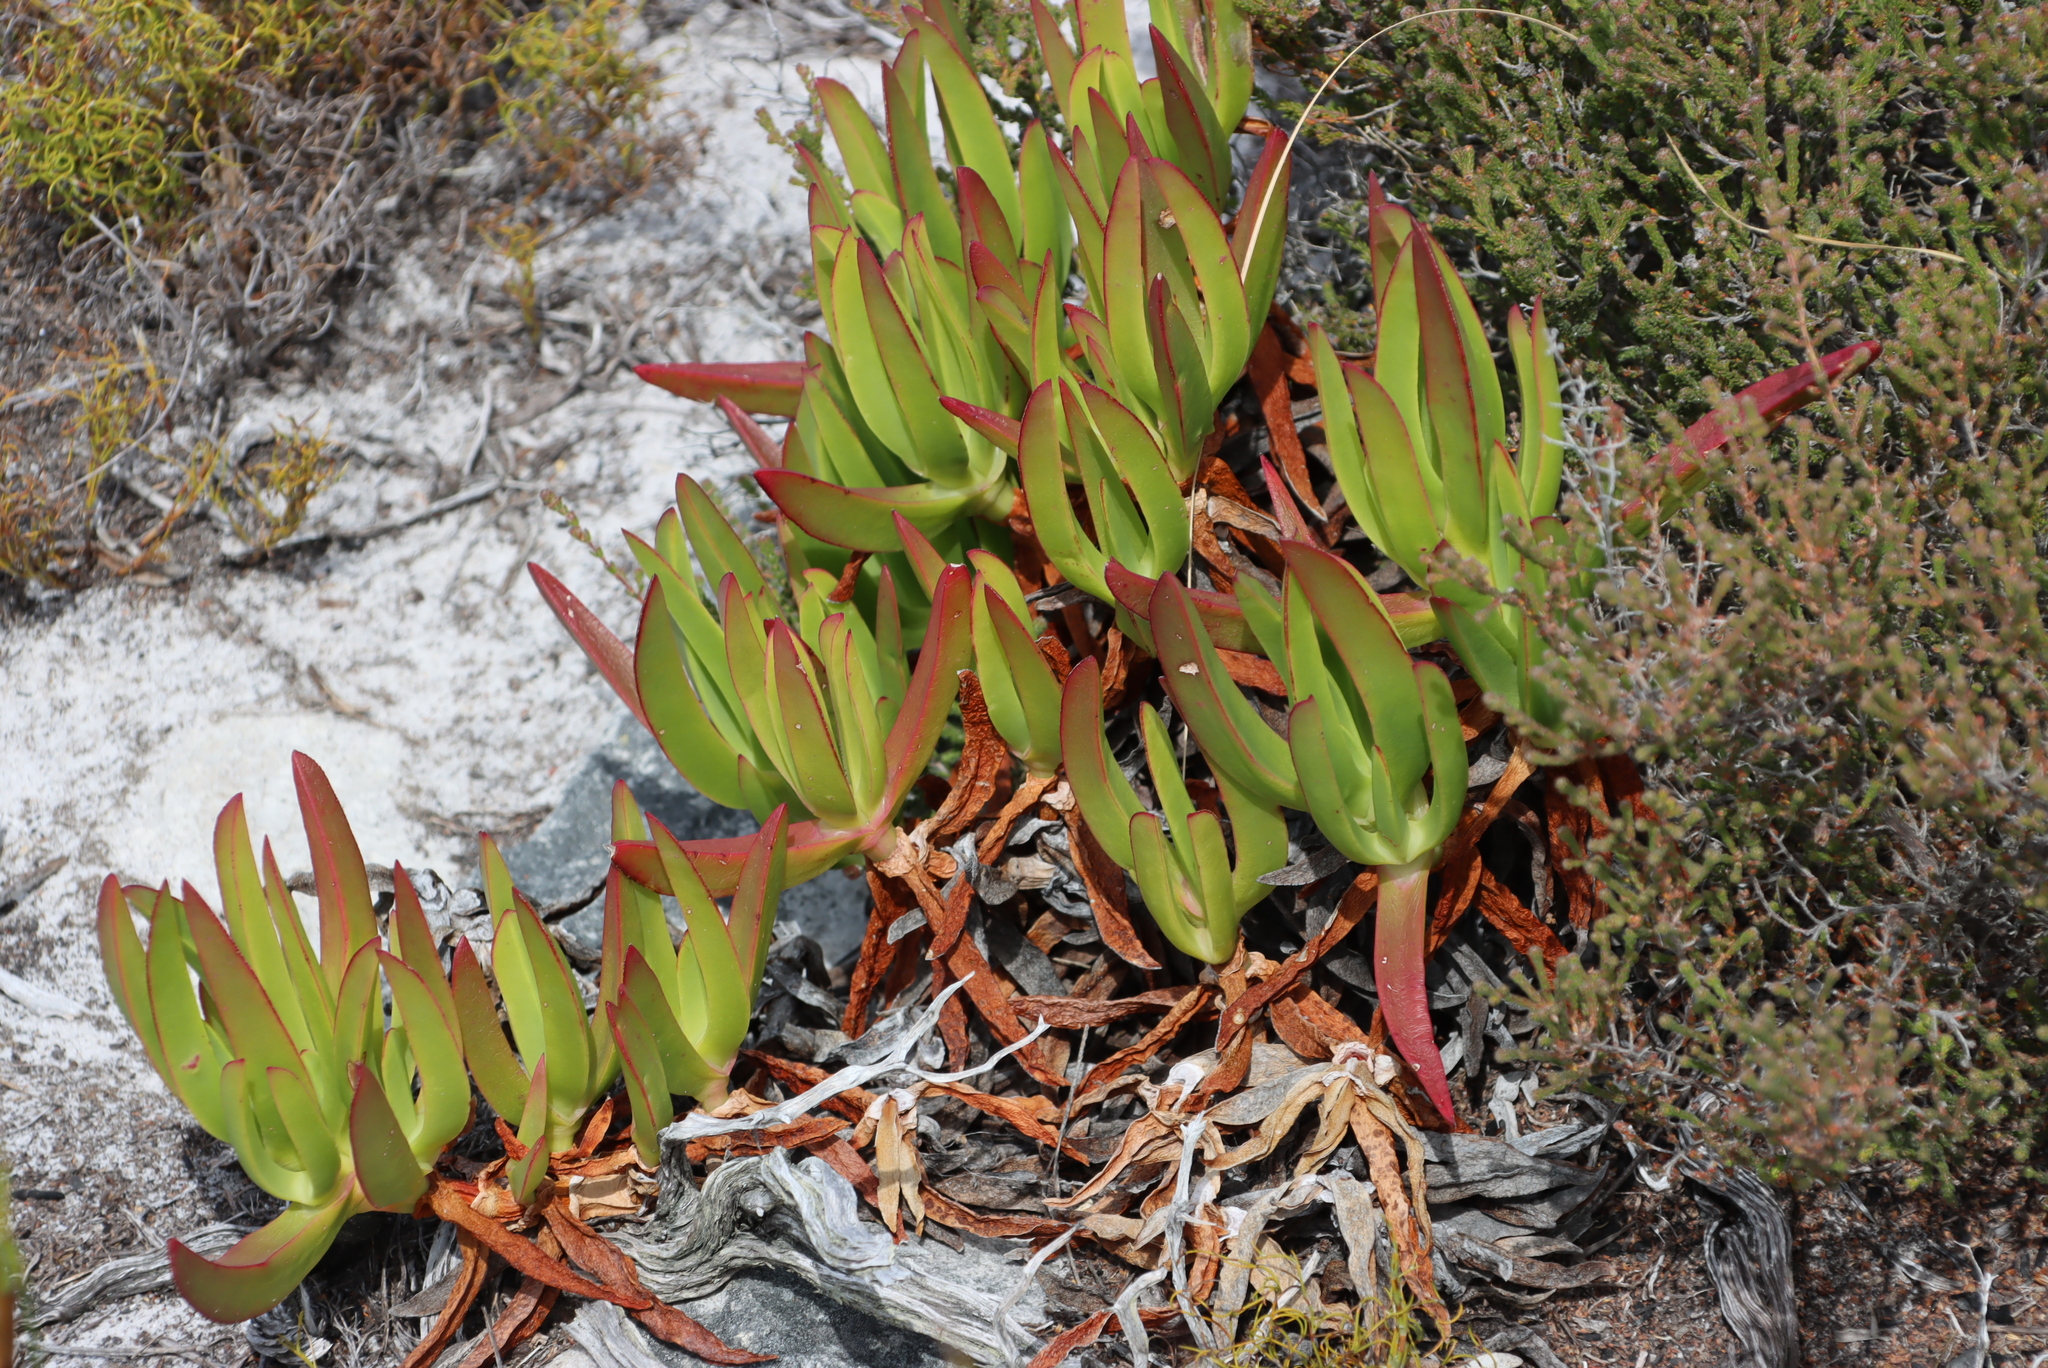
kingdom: Plantae
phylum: Tracheophyta
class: Magnoliopsida
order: Caryophyllales
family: Aizoaceae
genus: Carpobrotus
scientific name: Carpobrotus edulis
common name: Hottentot-fig
